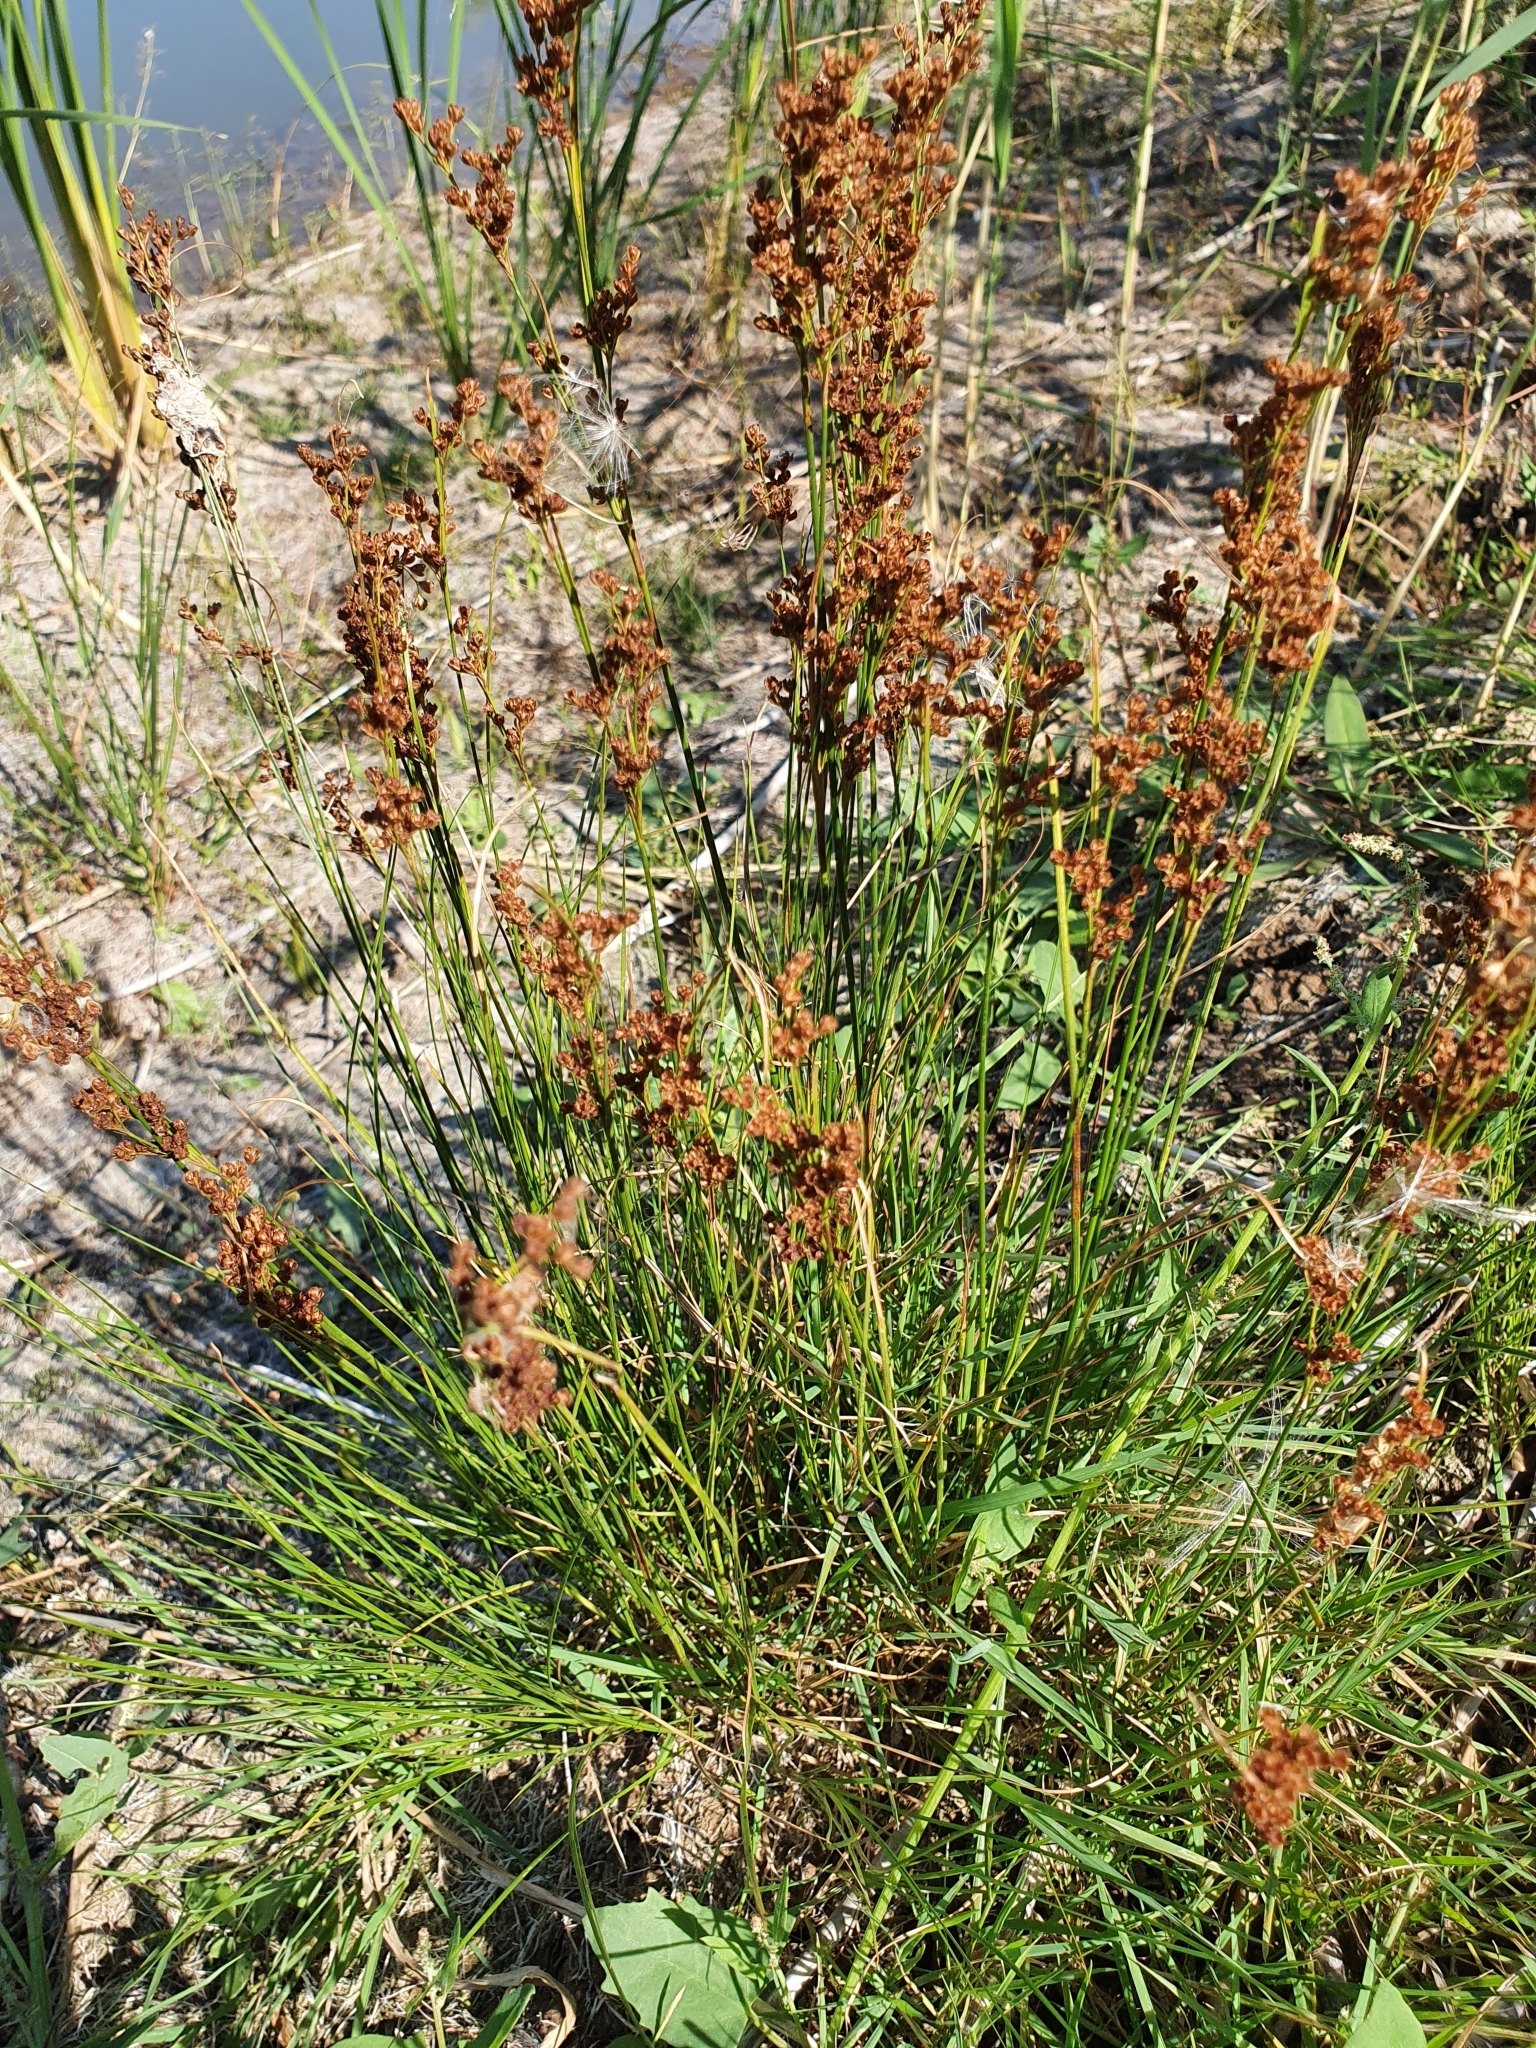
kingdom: Plantae
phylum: Tracheophyta
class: Liliopsida
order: Poales
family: Juncaceae
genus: Juncus
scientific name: Juncus compressus
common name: Round-fruited rush
